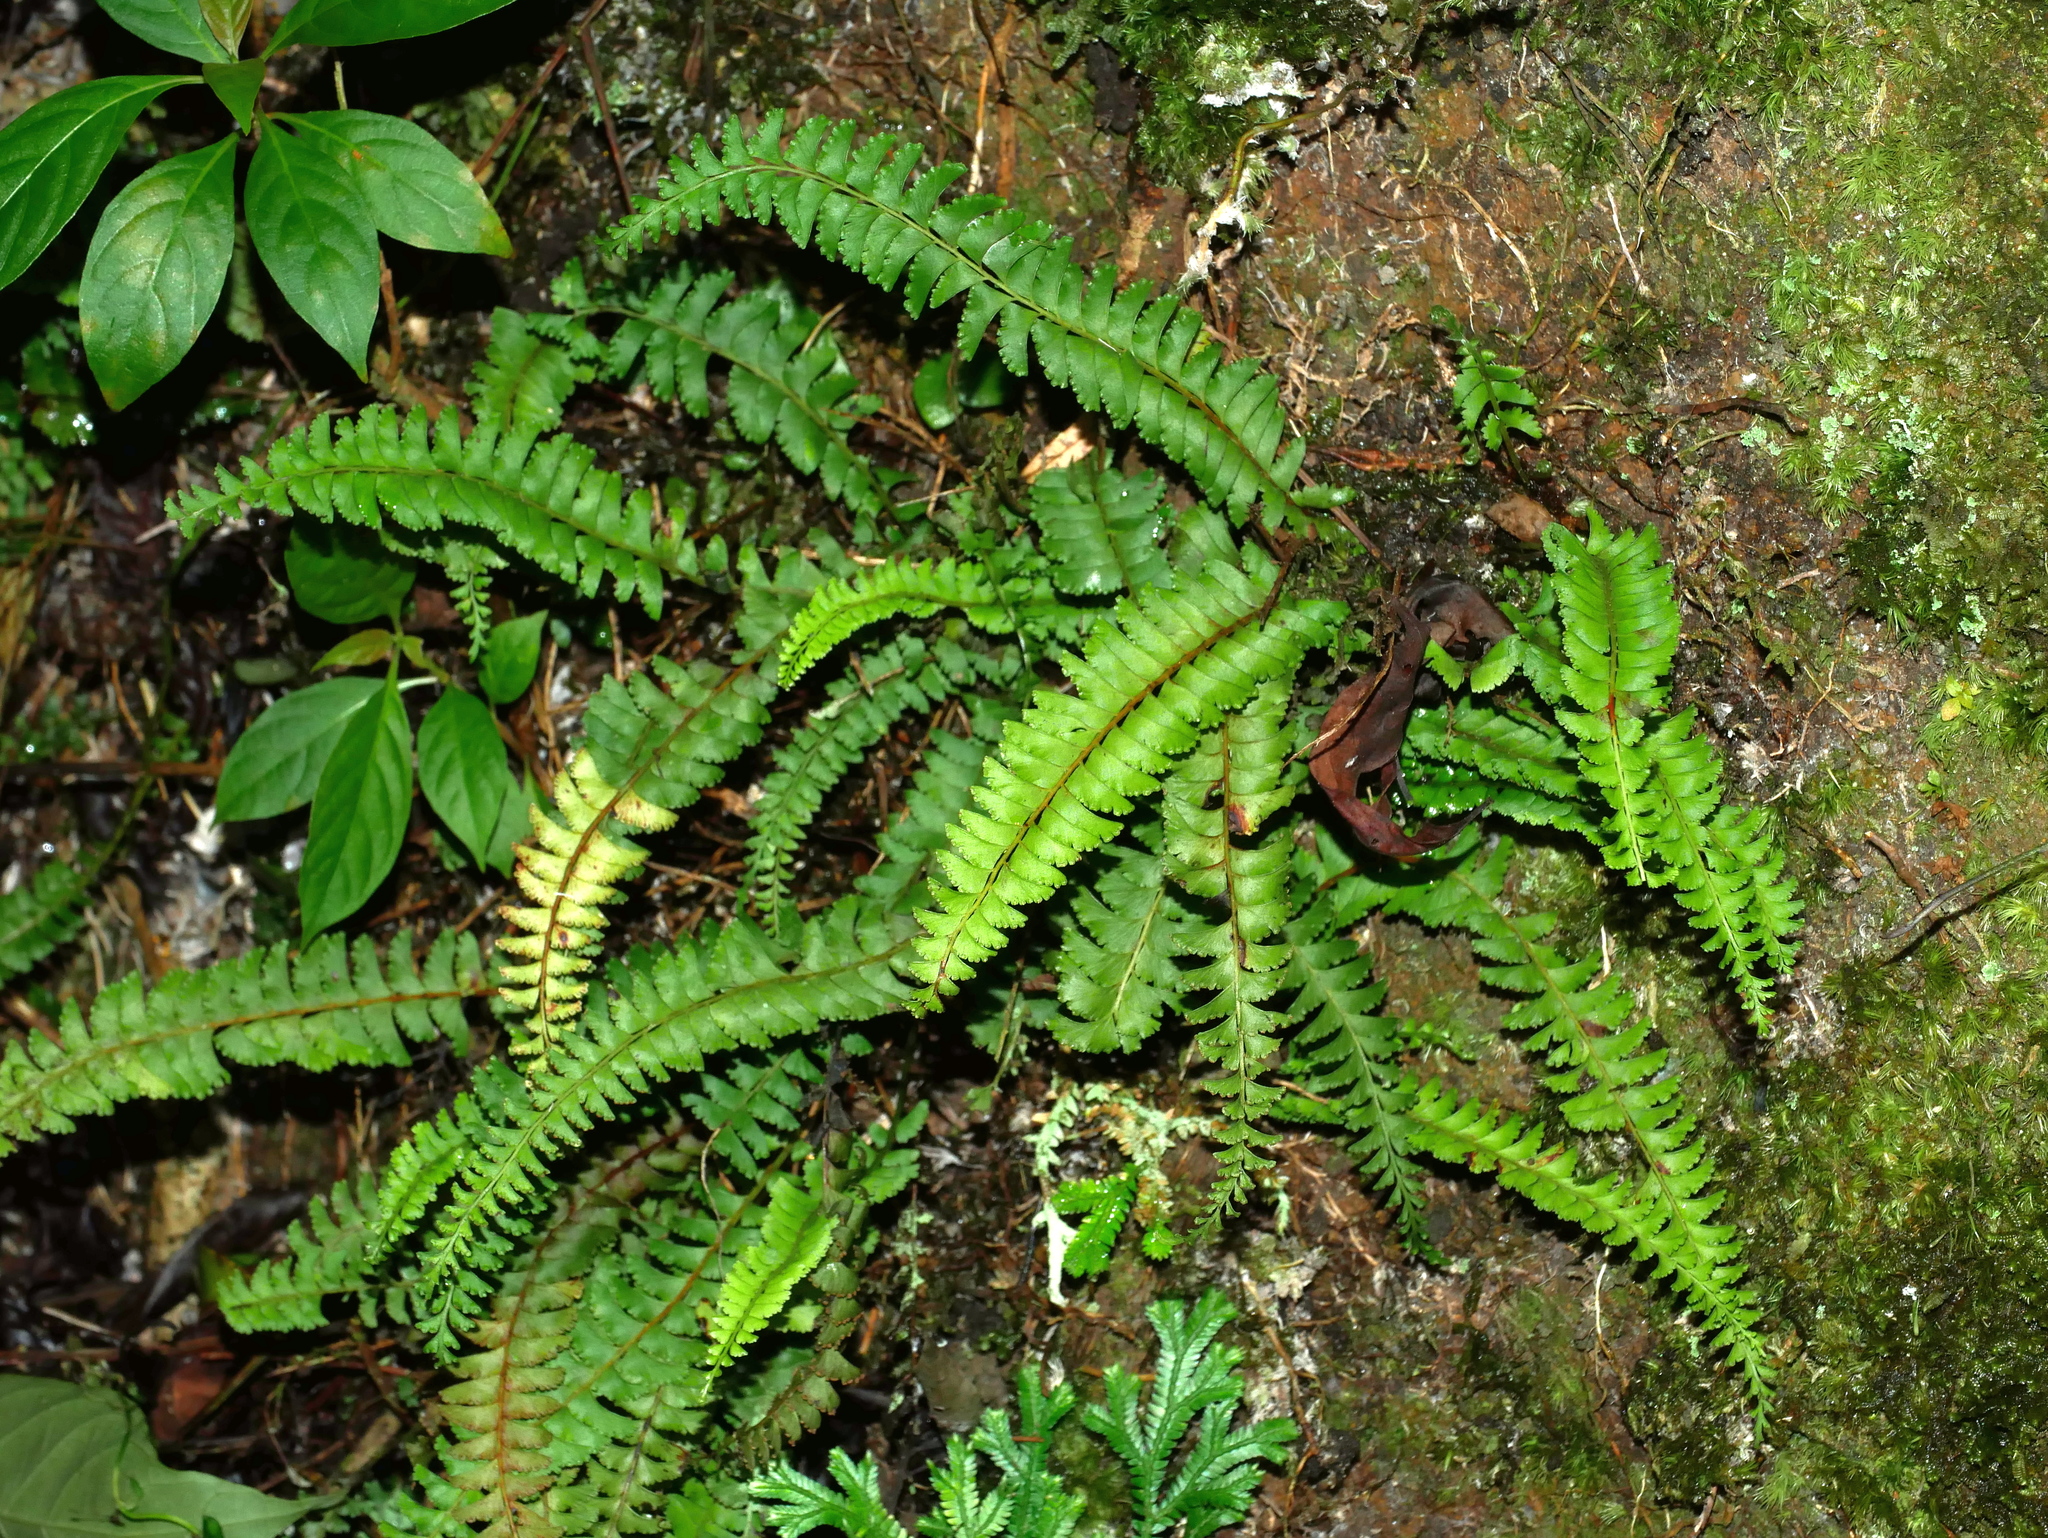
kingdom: Plantae
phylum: Tracheophyta
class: Polypodiopsida
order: Polypodiales
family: Lindsaeaceae
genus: Lindsaea
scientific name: Lindsaea yaeyamensis
